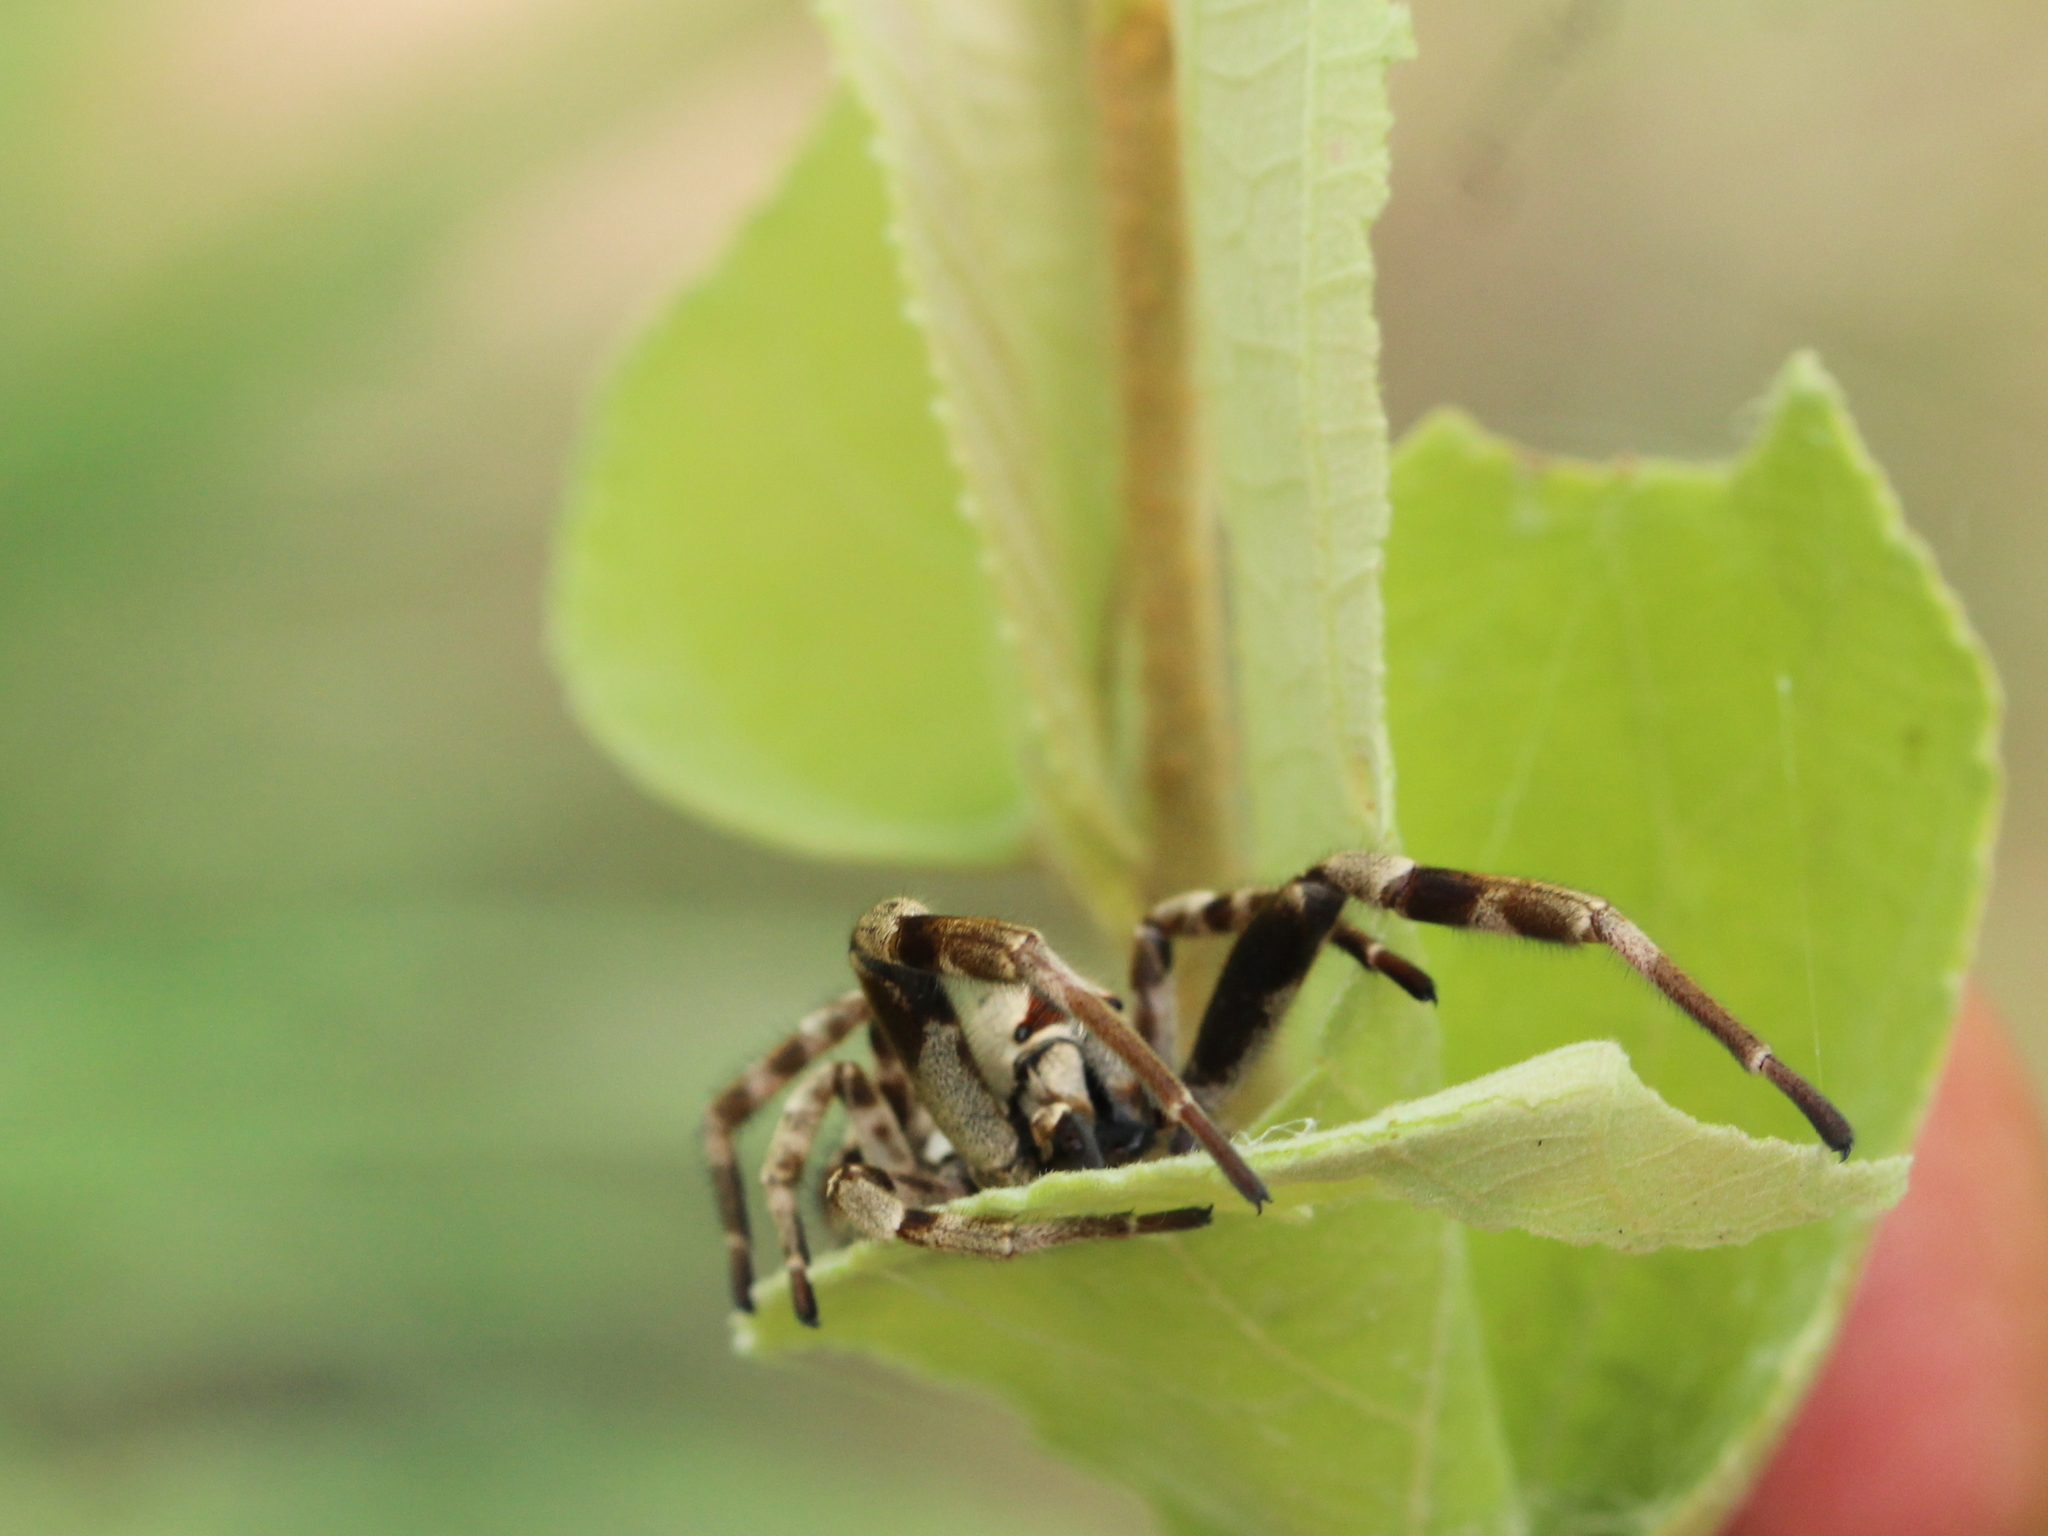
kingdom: Animalia
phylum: Arthropoda
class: Arachnida
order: Araneae
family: Eresidae
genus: Stegodyphus
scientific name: Stegodyphus pacificus
